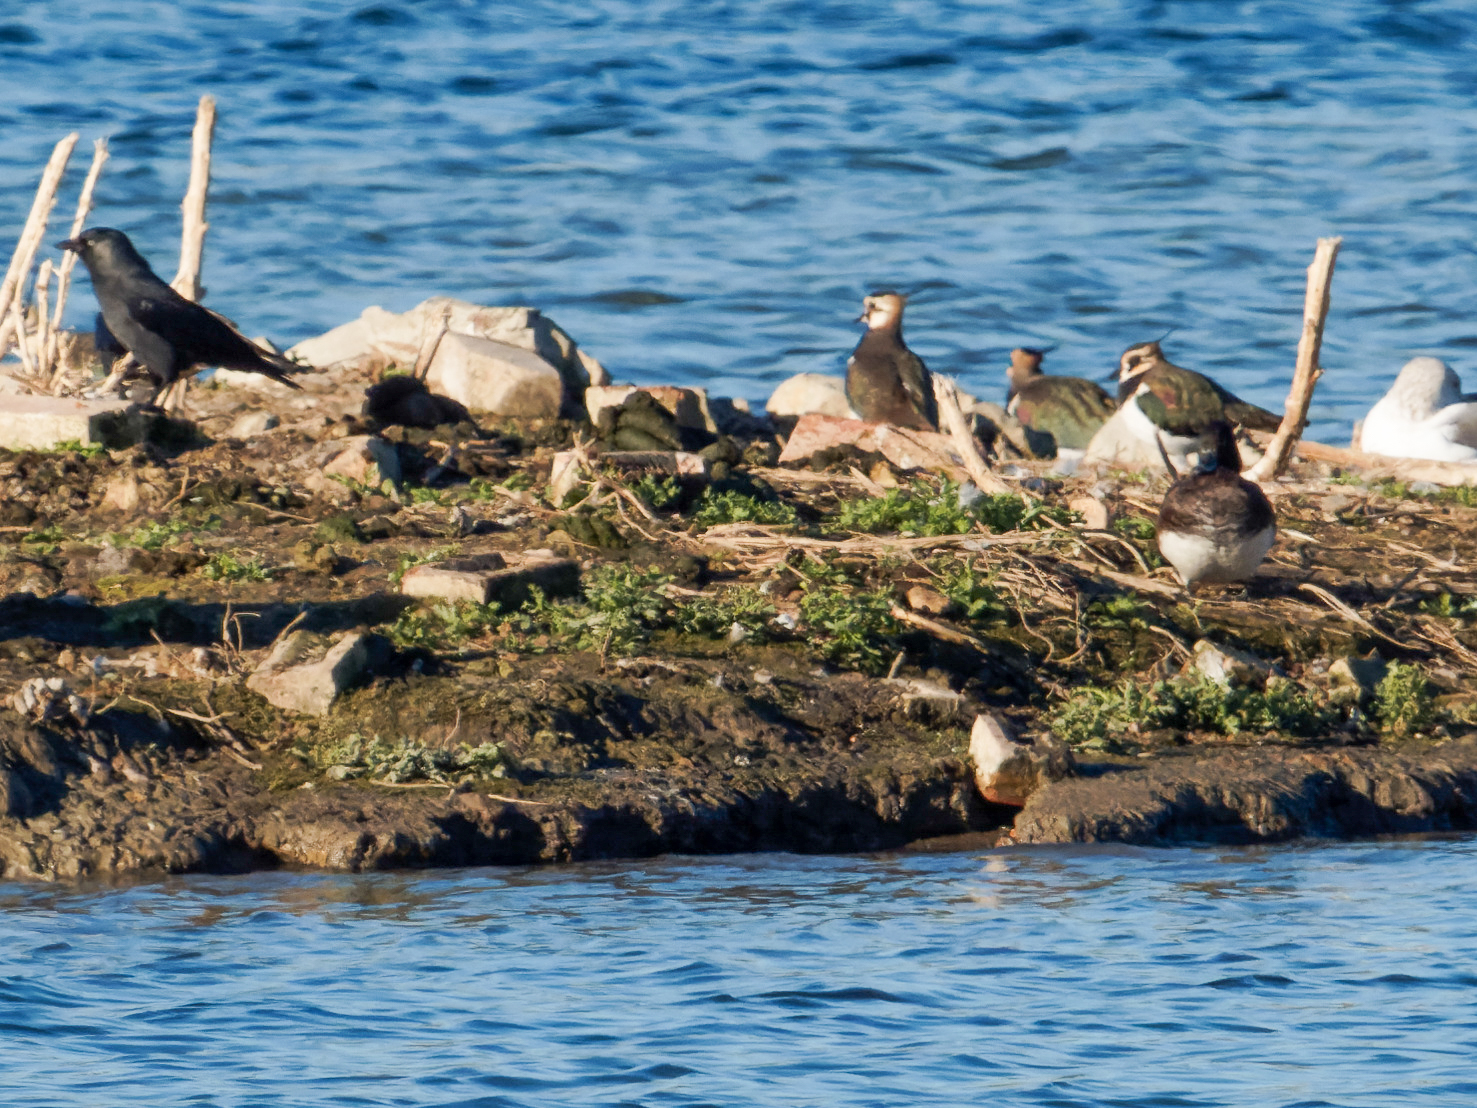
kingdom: Animalia
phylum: Chordata
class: Aves
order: Charadriiformes
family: Charadriidae
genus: Vanellus
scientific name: Vanellus vanellus
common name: Northern lapwing
